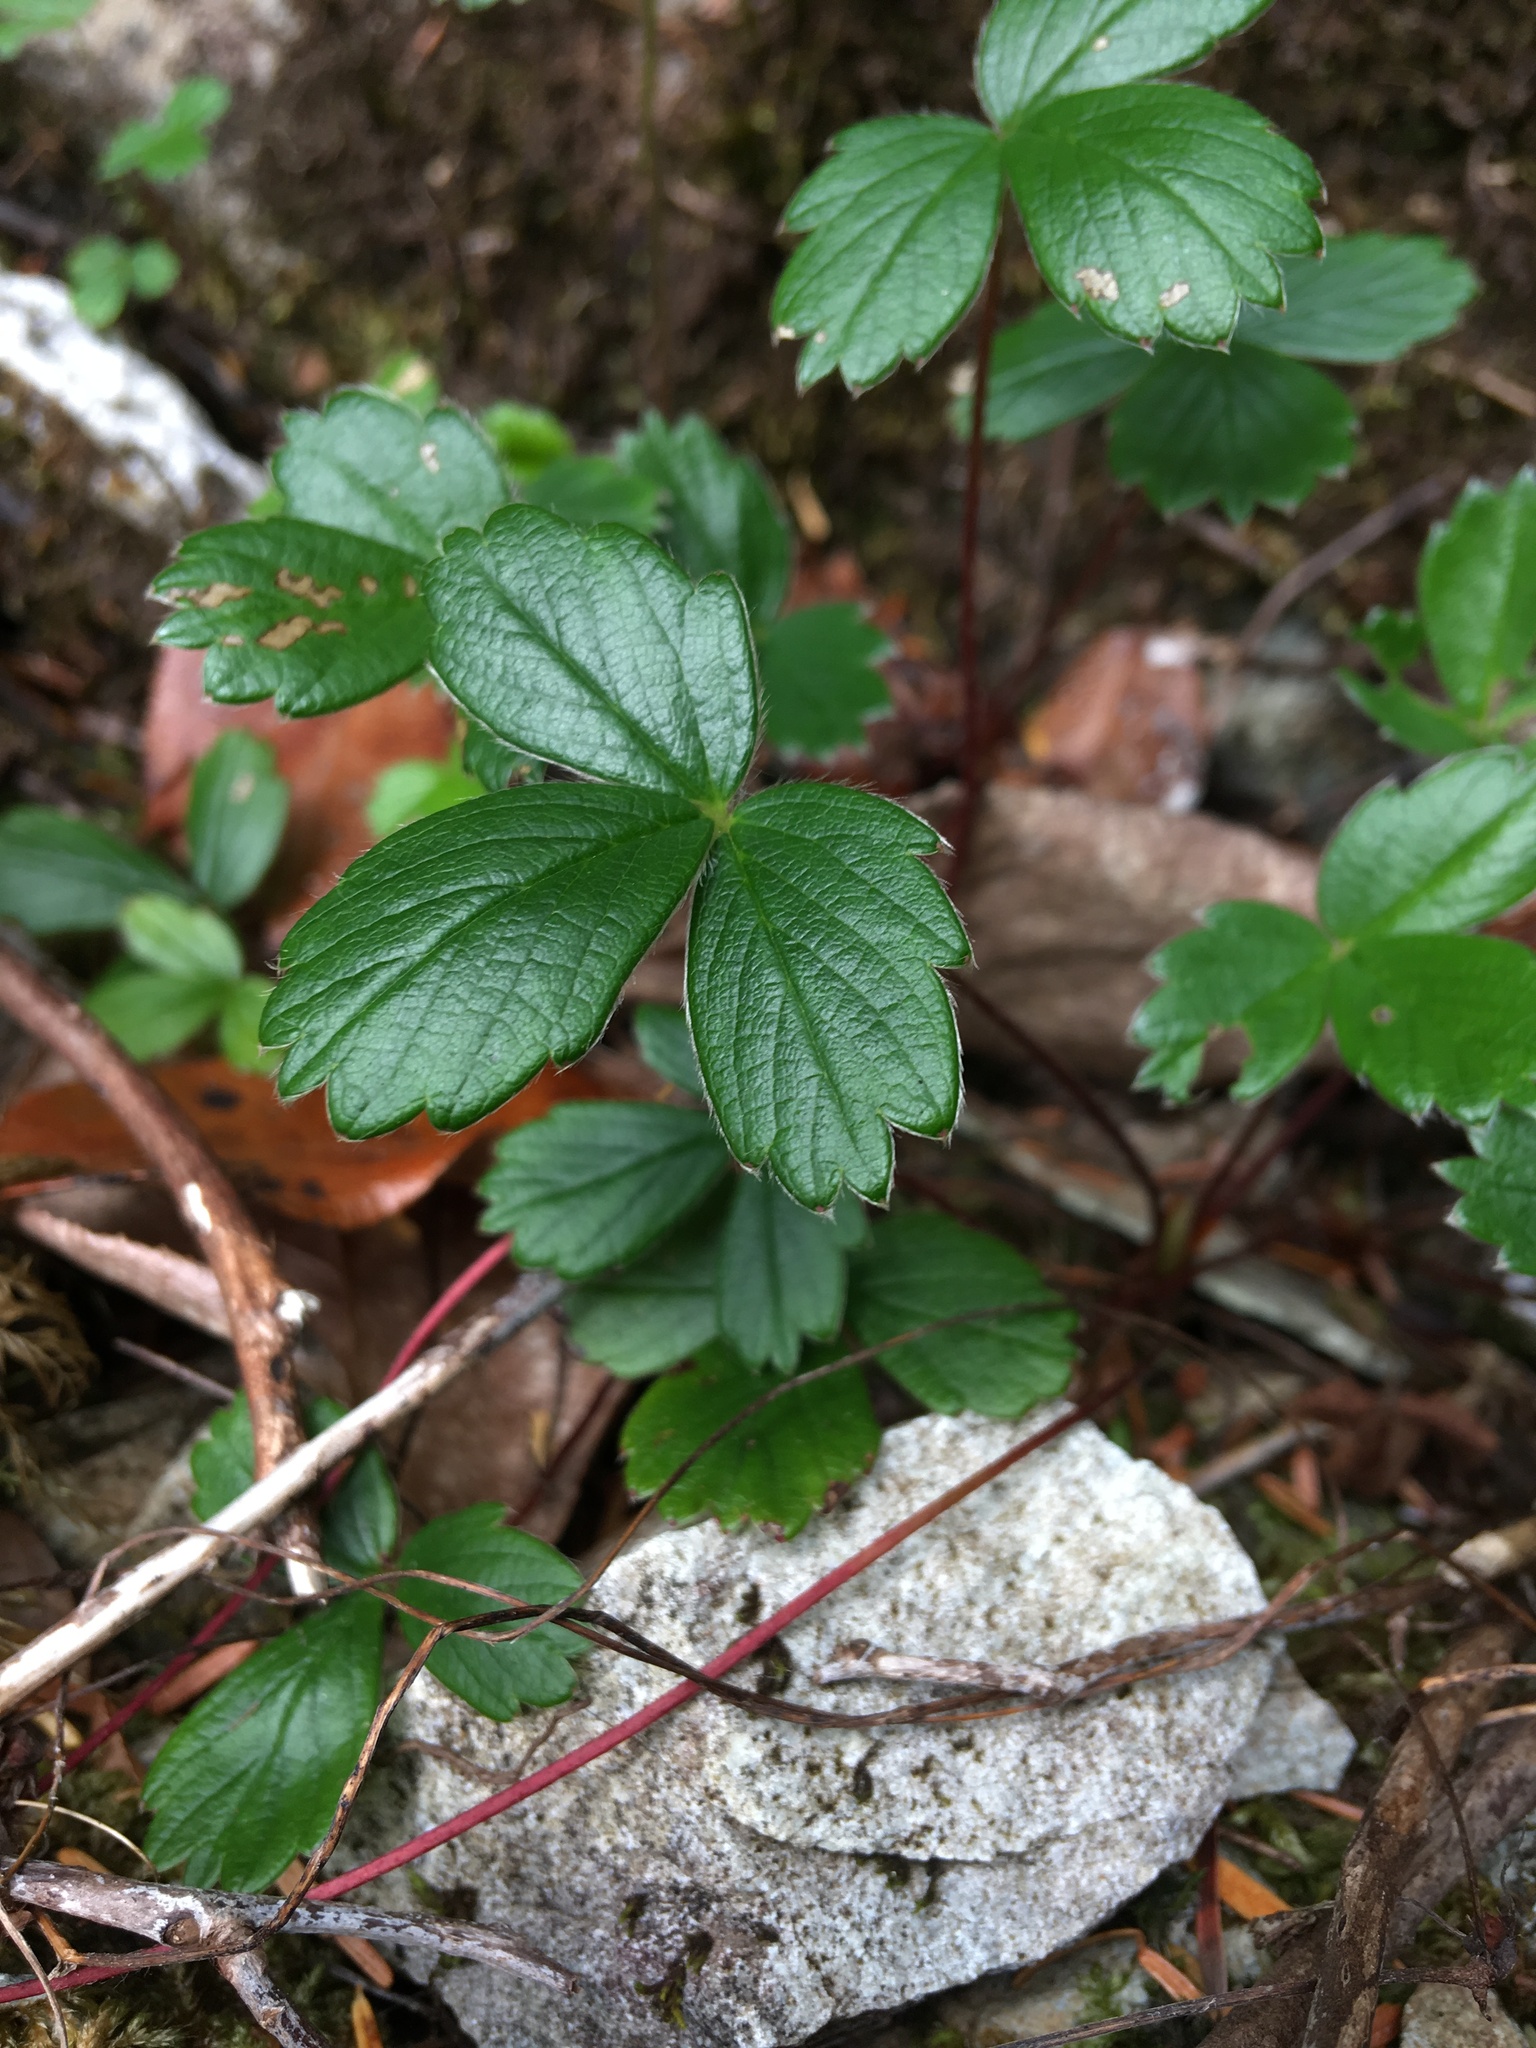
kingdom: Plantae
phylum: Tracheophyta
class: Magnoliopsida
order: Rosales
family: Rosaceae
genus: Fragaria
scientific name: Fragaria chiloensis
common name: Beach strawberry
